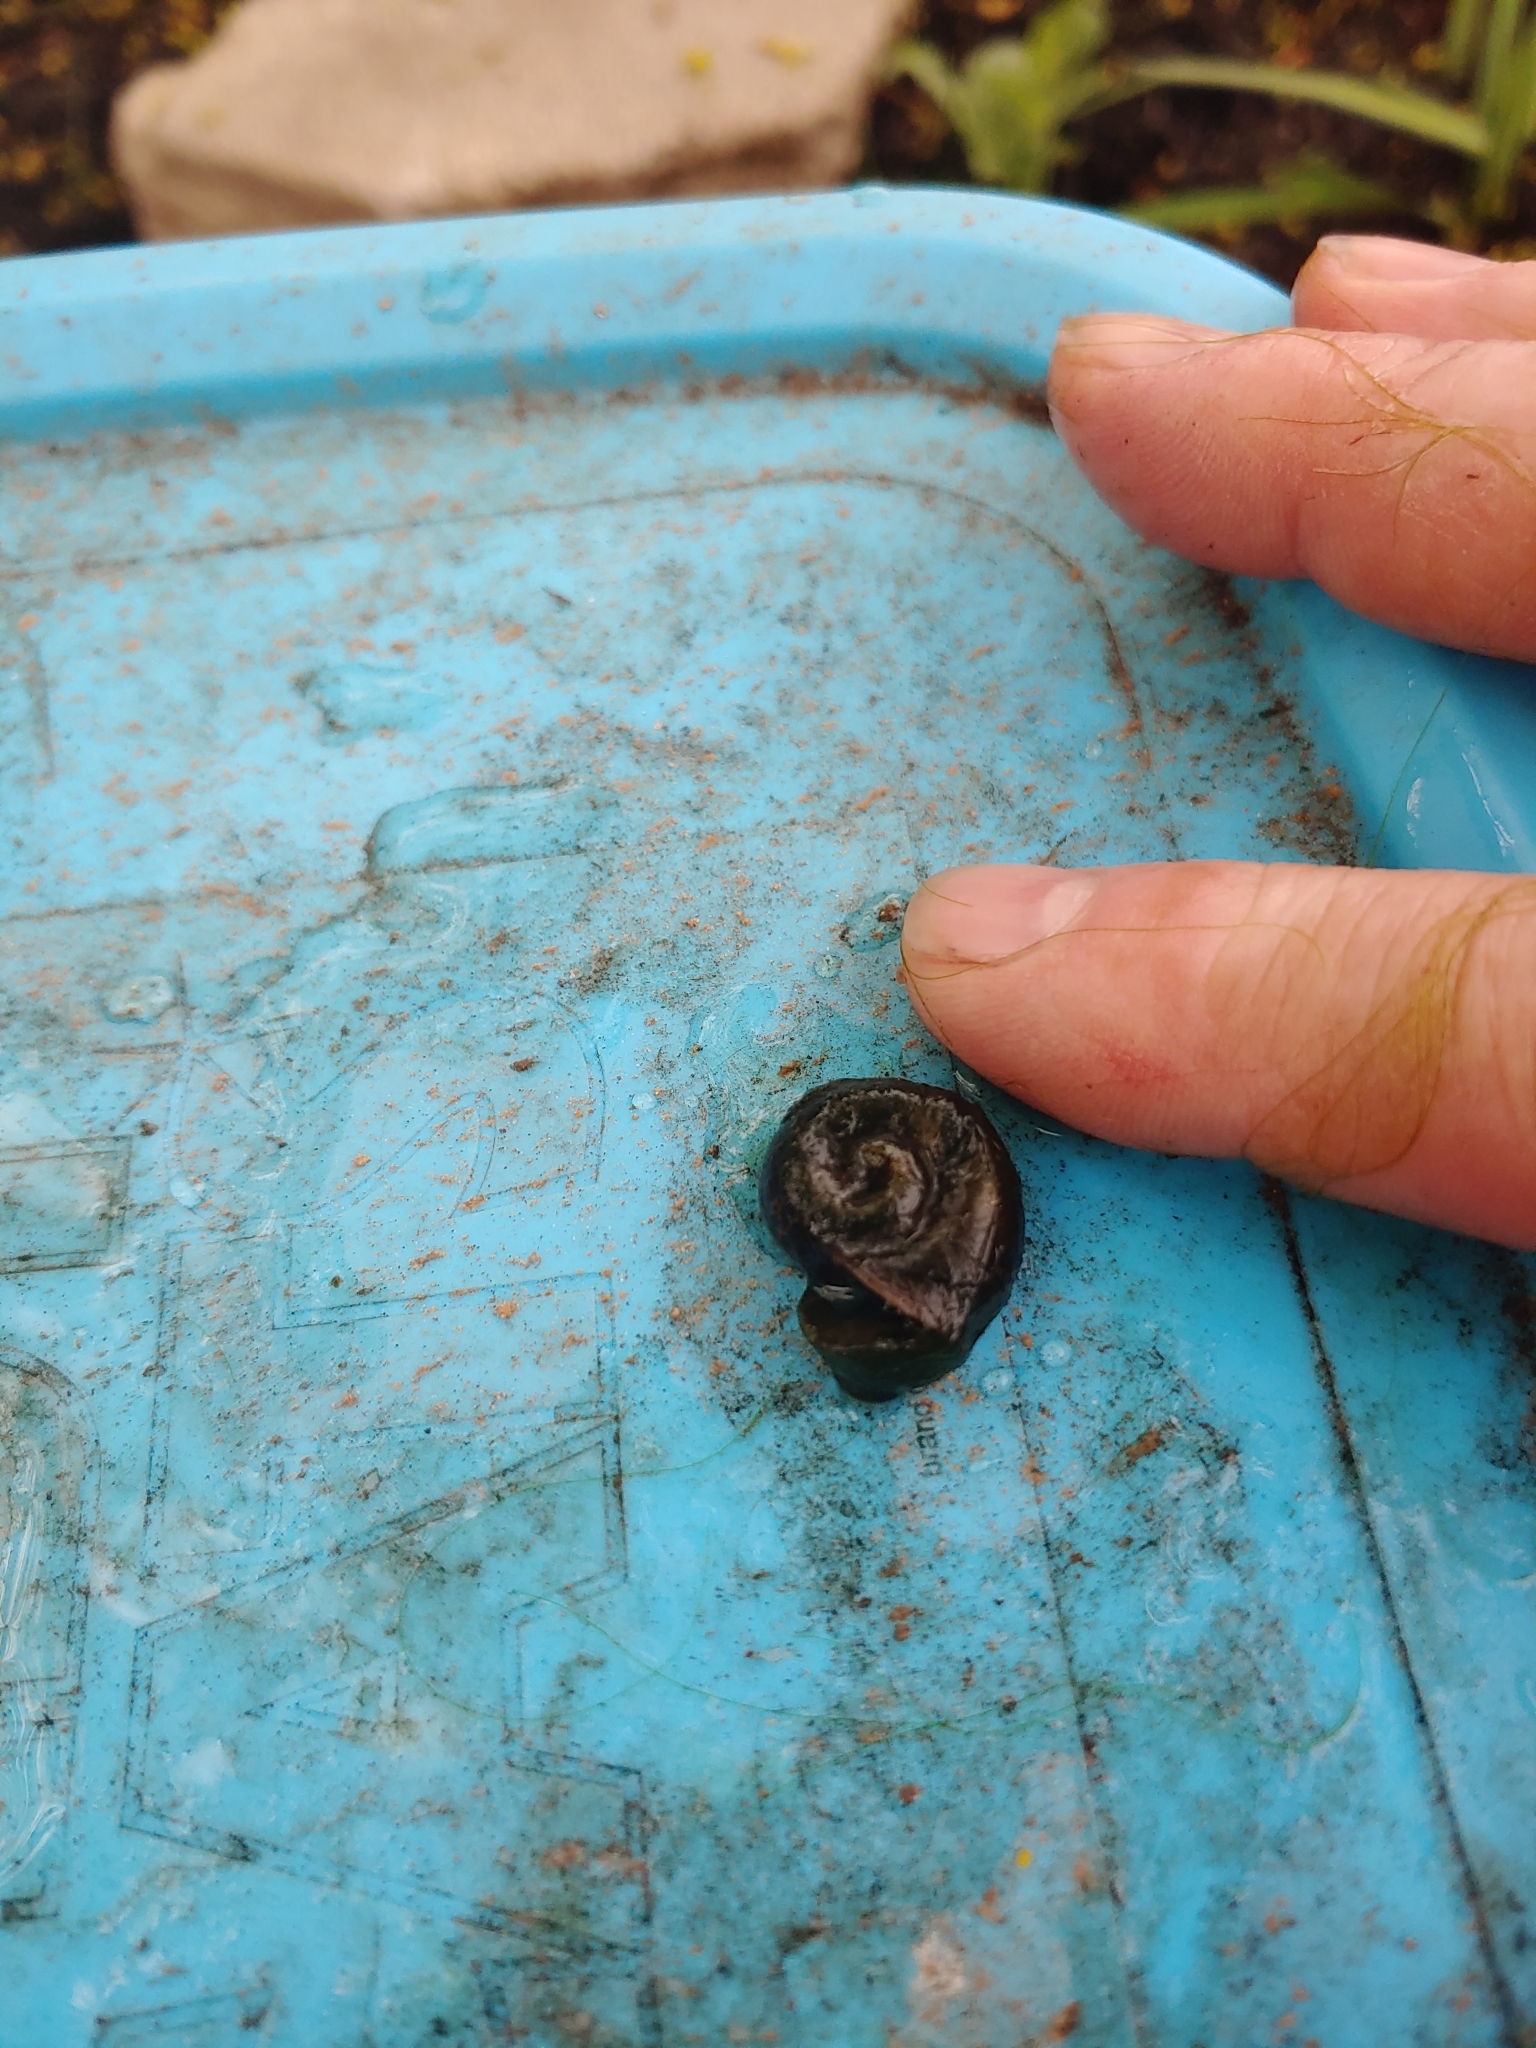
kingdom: Animalia
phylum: Mollusca
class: Gastropoda
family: Planorbidae
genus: Planorbella
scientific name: Planorbella trivolvis
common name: Marsh rams-horn
